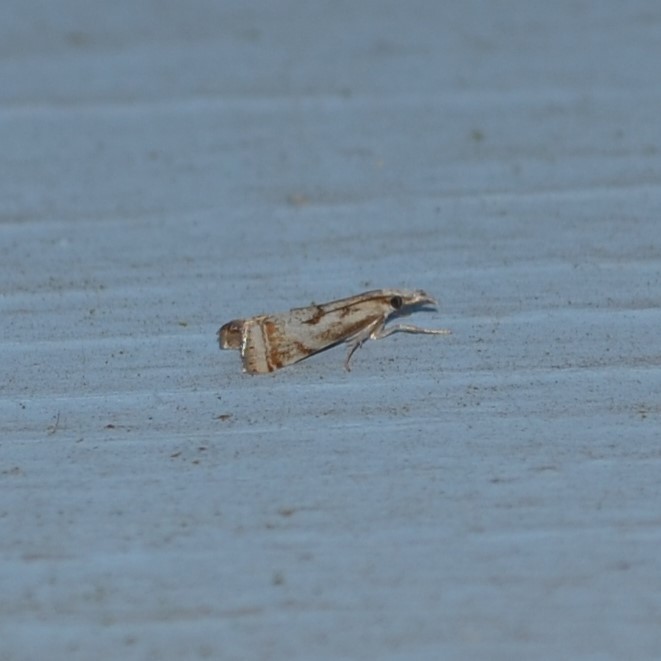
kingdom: Animalia
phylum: Arthropoda
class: Insecta
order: Lepidoptera
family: Crambidae
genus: Microcrambus
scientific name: Microcrambus elegans
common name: Elegant grass-veneer
